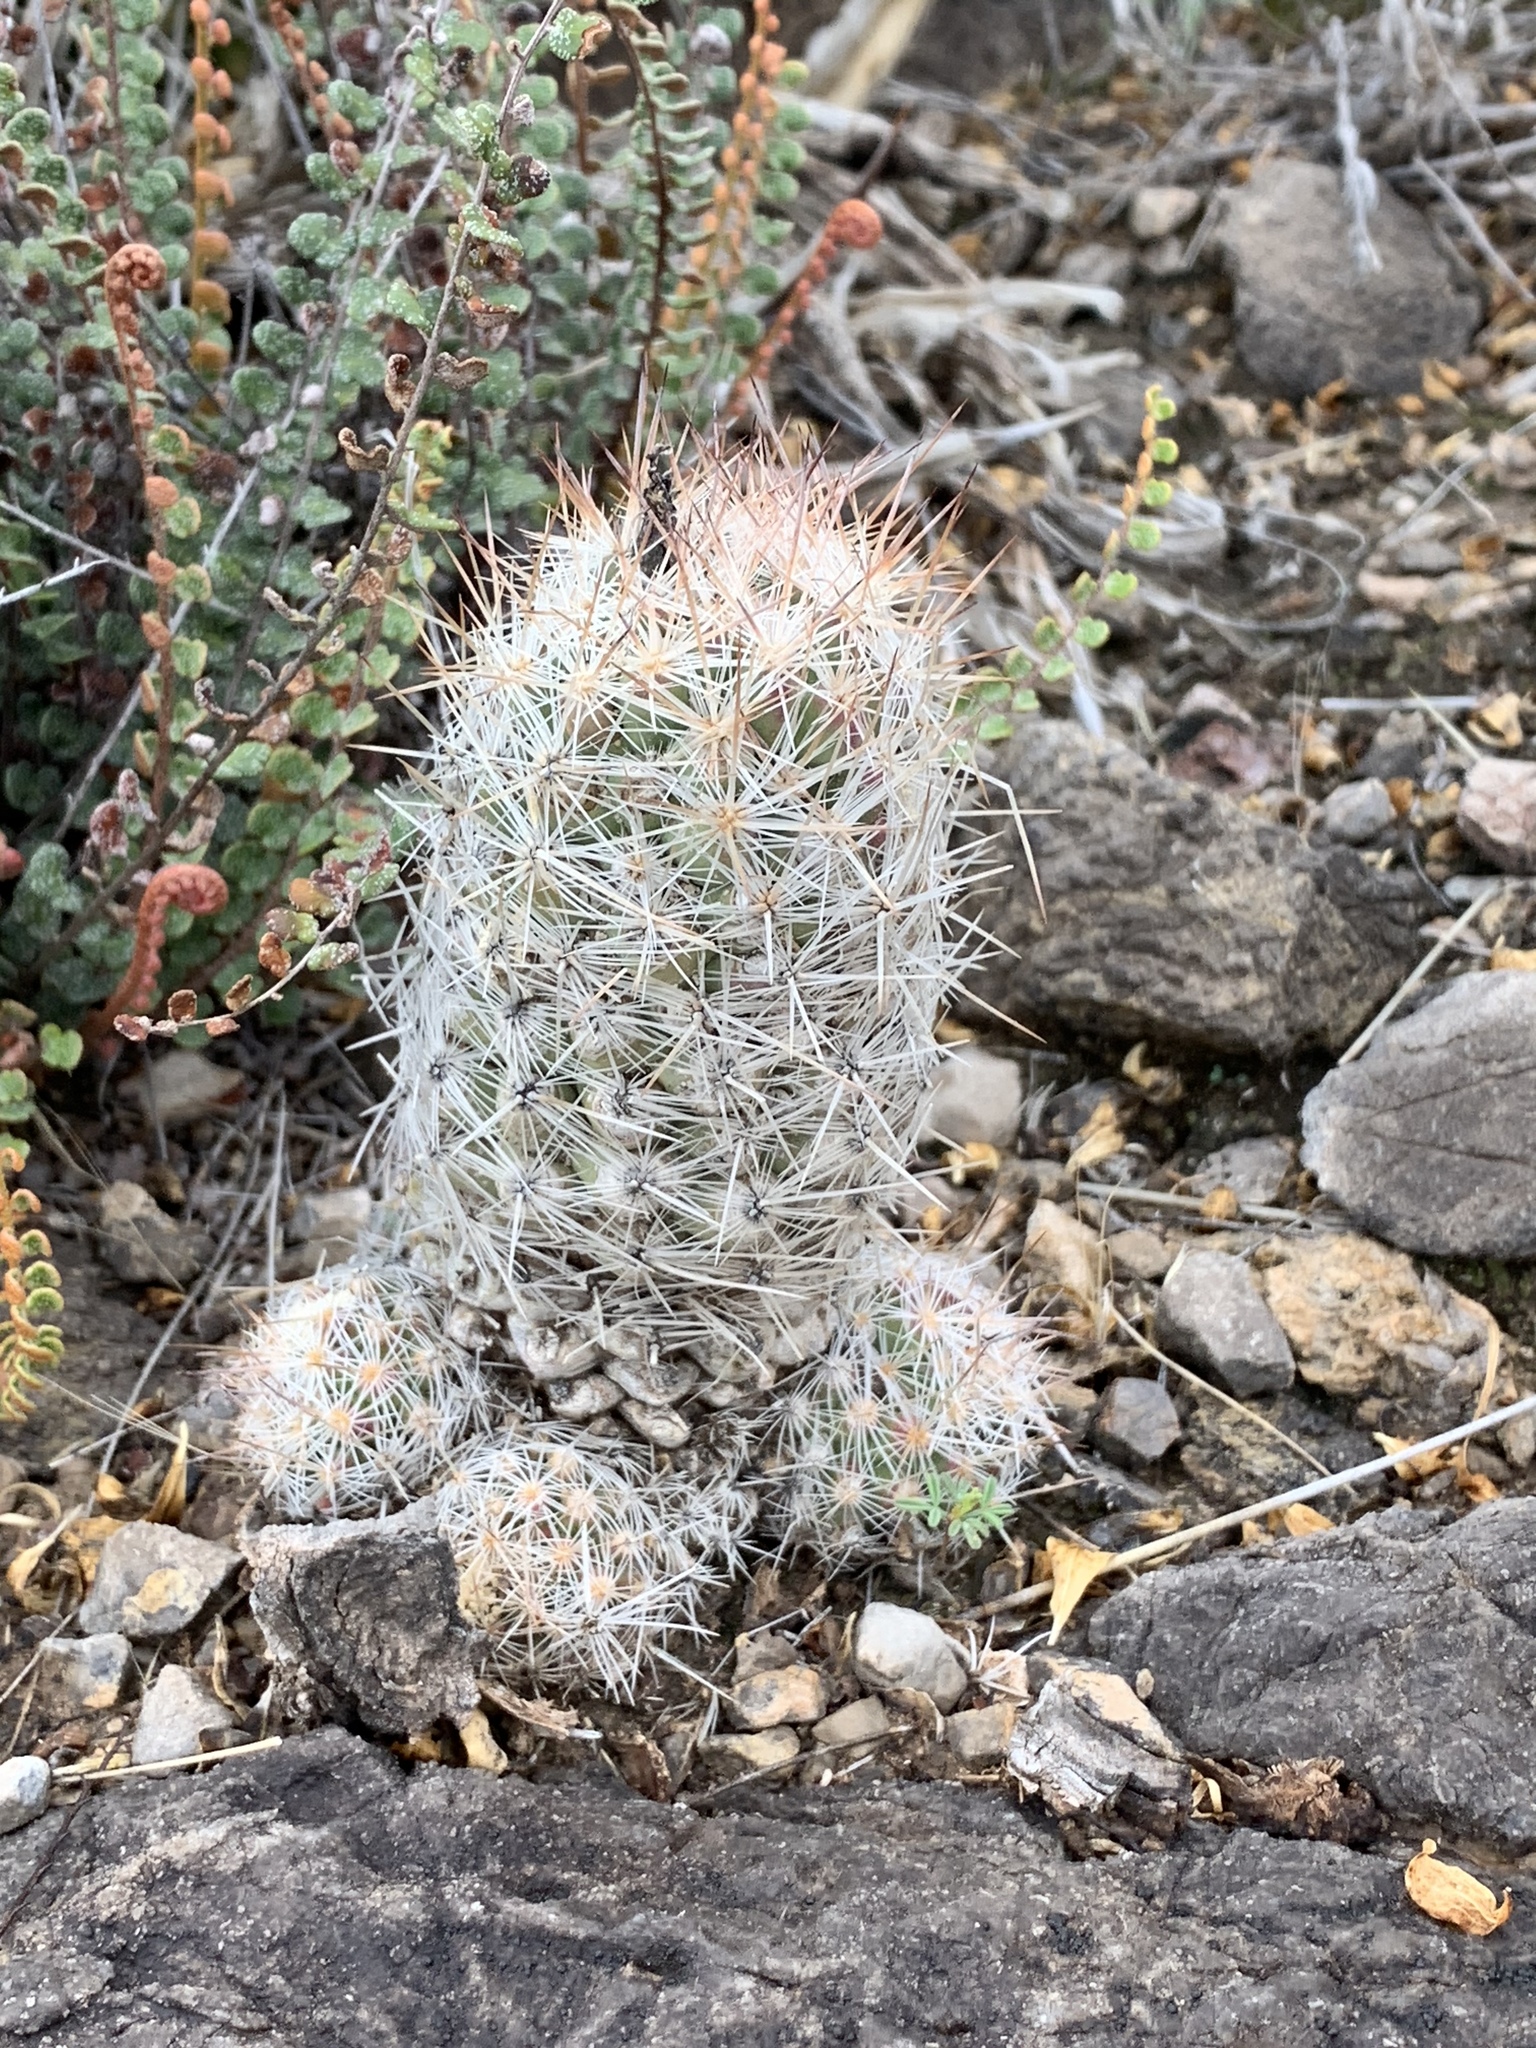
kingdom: Plantae
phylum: Tracheophyta
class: Magnoliopsida
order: Caryophyllales
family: Cactaceae
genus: Pelecyphora
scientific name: Pelecyphora tuberculosa
